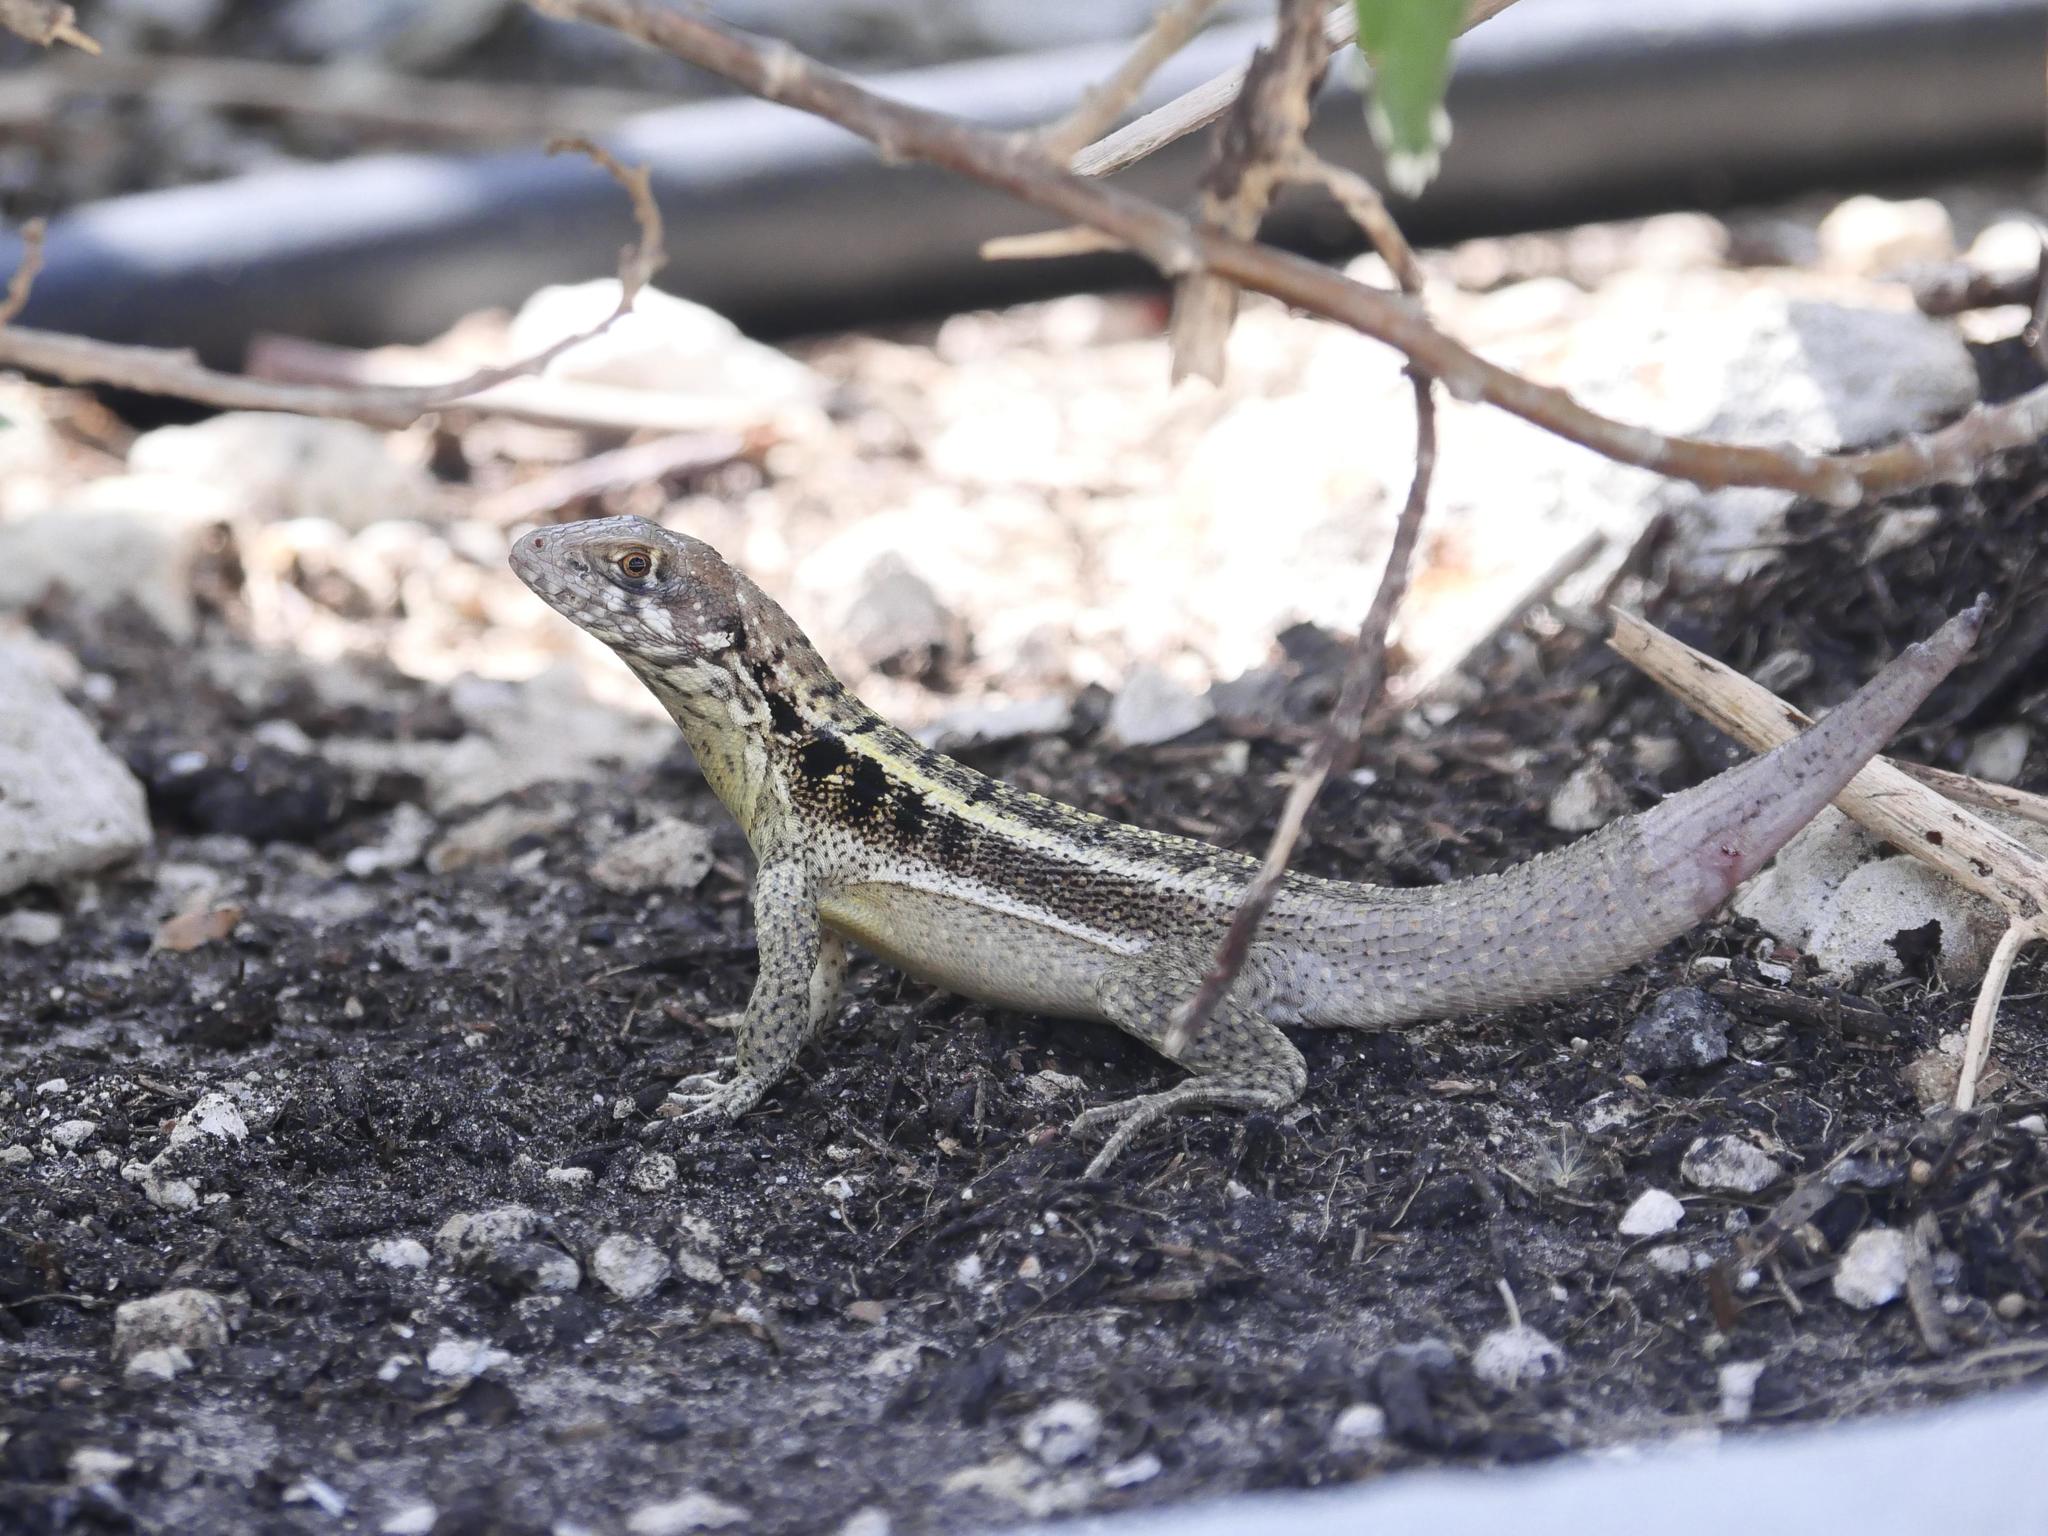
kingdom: Animalia
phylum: Chordata
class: Squamata
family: Leiocephalidae
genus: Leiocephalus
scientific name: Leiocephalus psammodromus
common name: Bastion cay curlytail lizard
